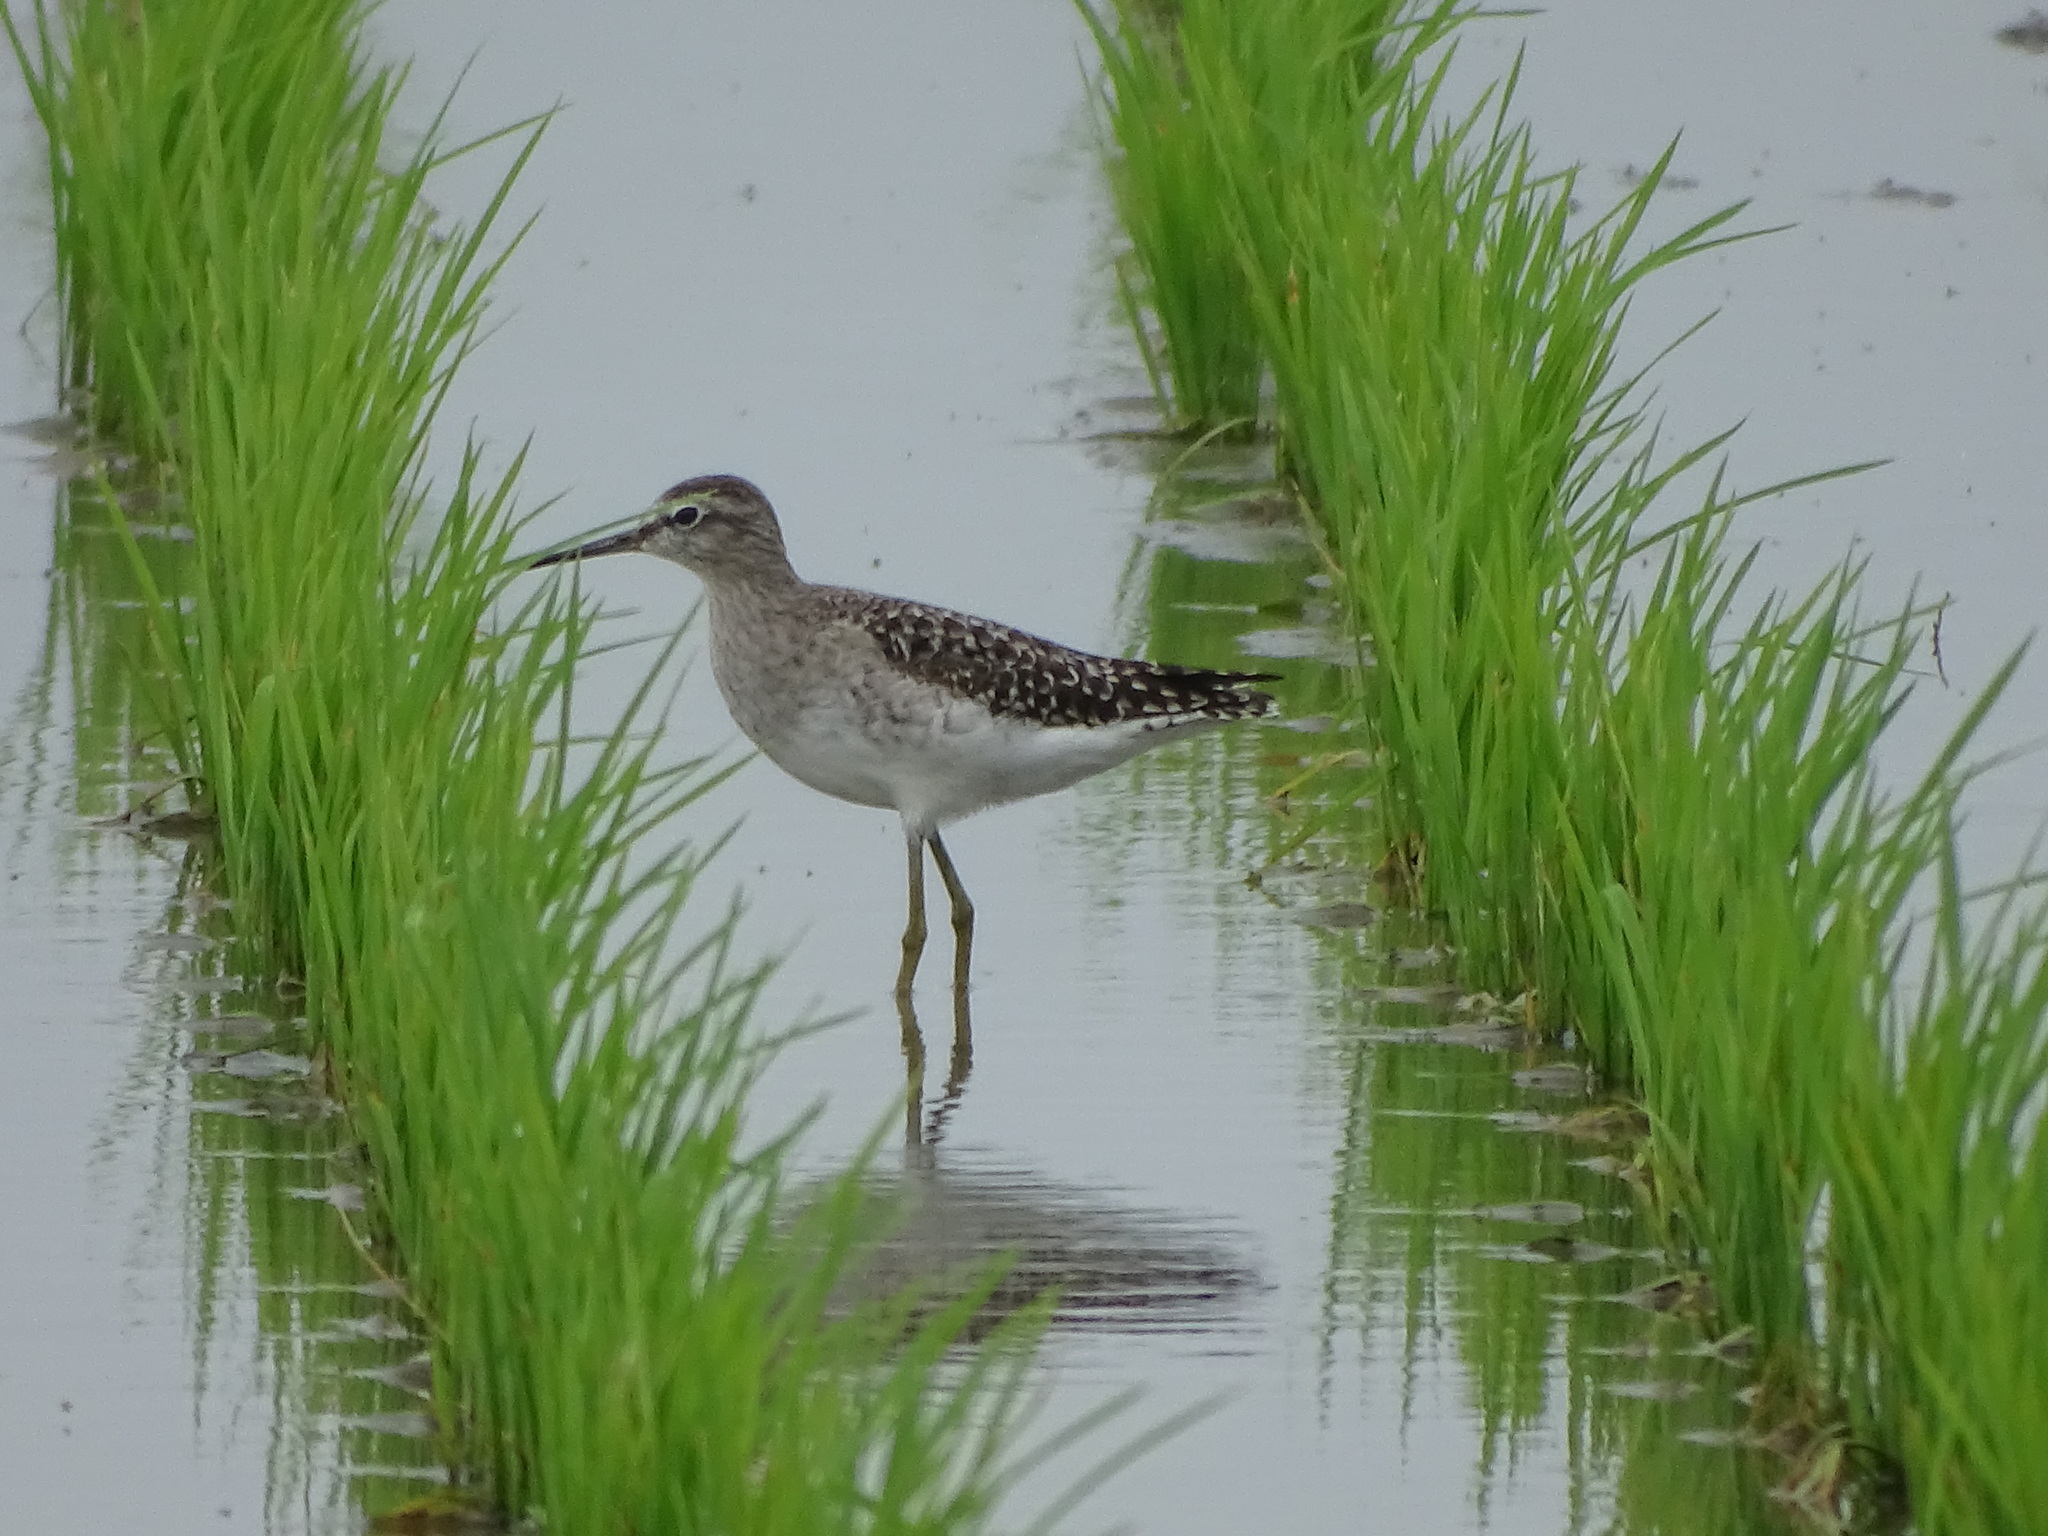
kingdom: Animalia
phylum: Chordata
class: Aves
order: Charadriiformes
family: Scolopacidae
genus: Tringa
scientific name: Tringa glareola
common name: Wood sandpiper
